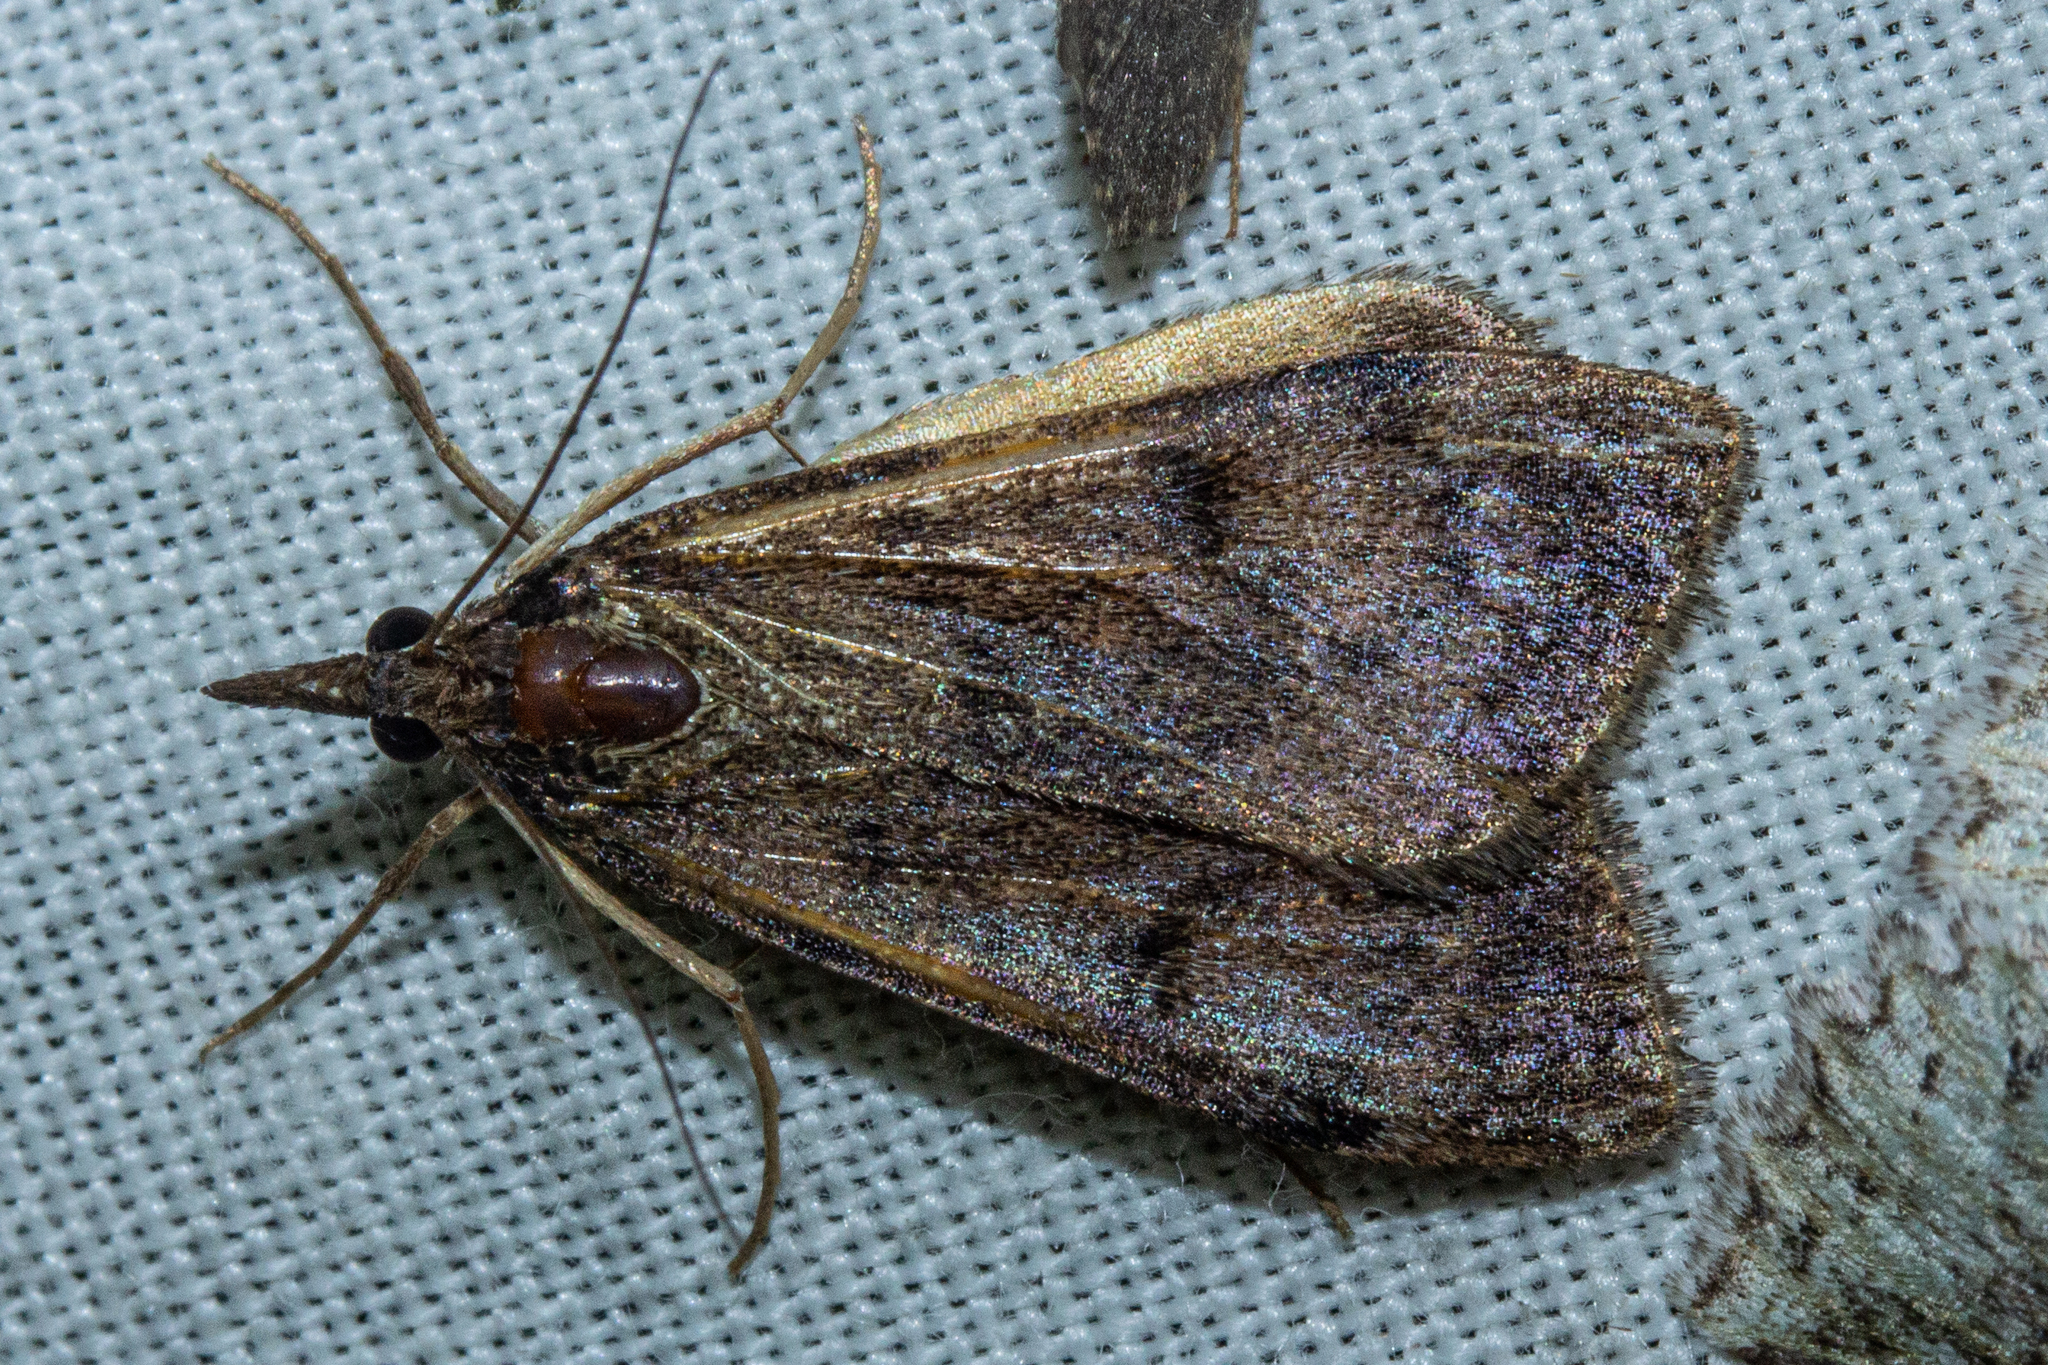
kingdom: Animalia
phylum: Arthropoda
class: Insecta
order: Lepidoptera
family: Crambidae
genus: Uresiphita
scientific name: Uresiphita
